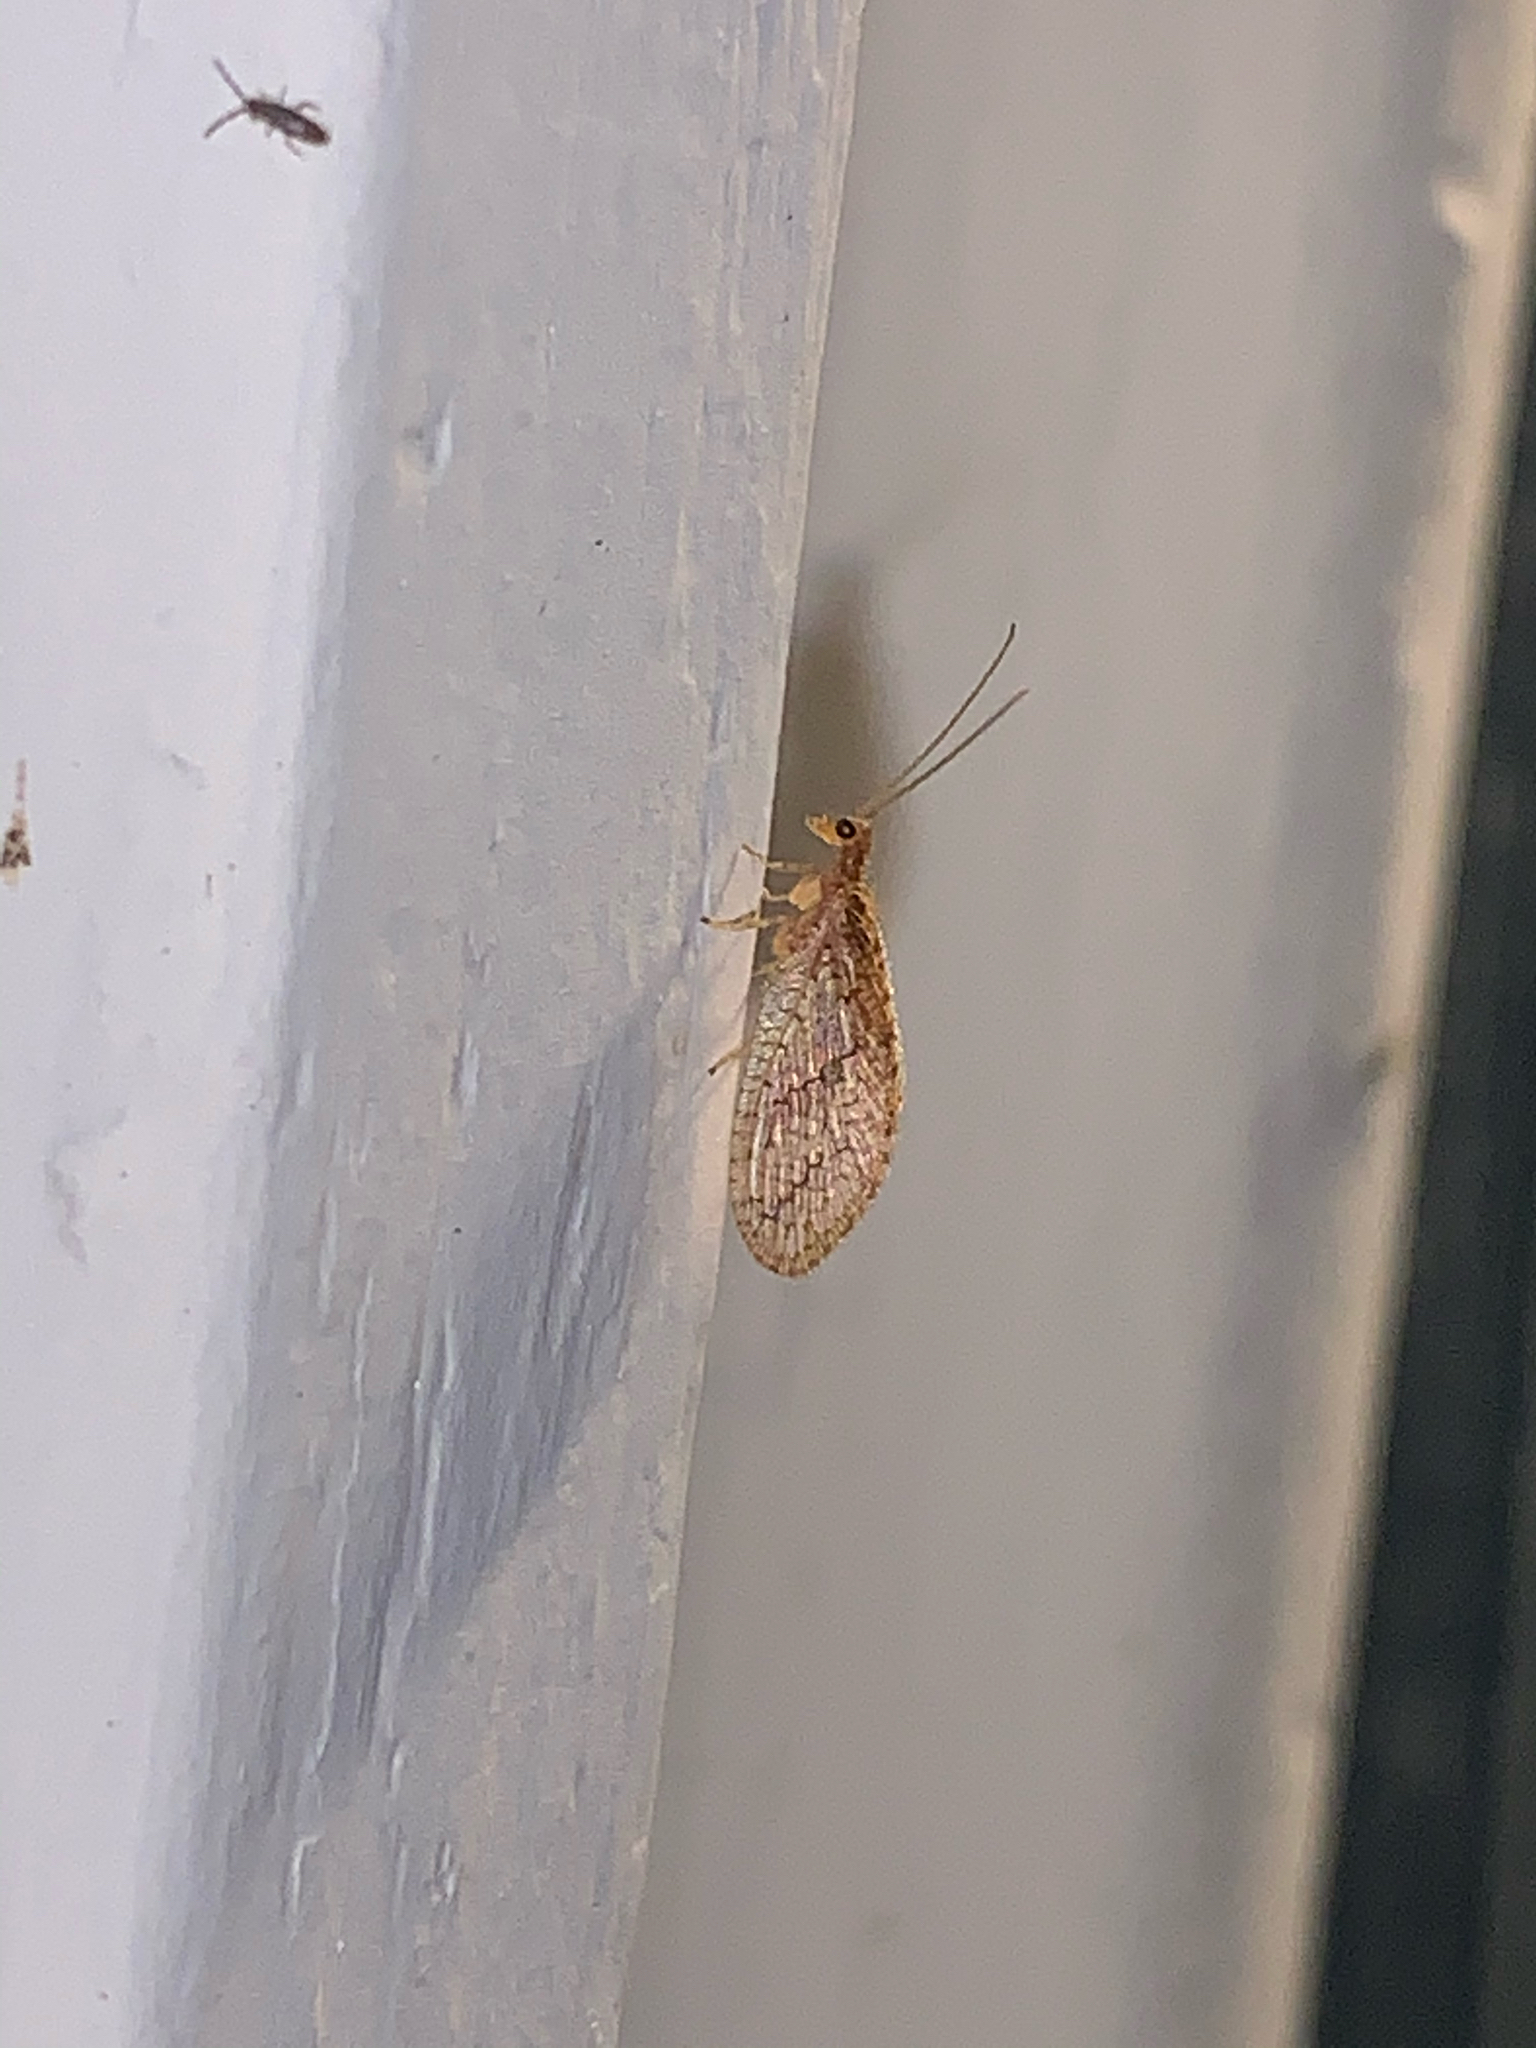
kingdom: Animalia
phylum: Arthropoda
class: Insecta
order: Neuroptera
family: Hemerobiidae
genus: Micromus
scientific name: Micromus posticus
